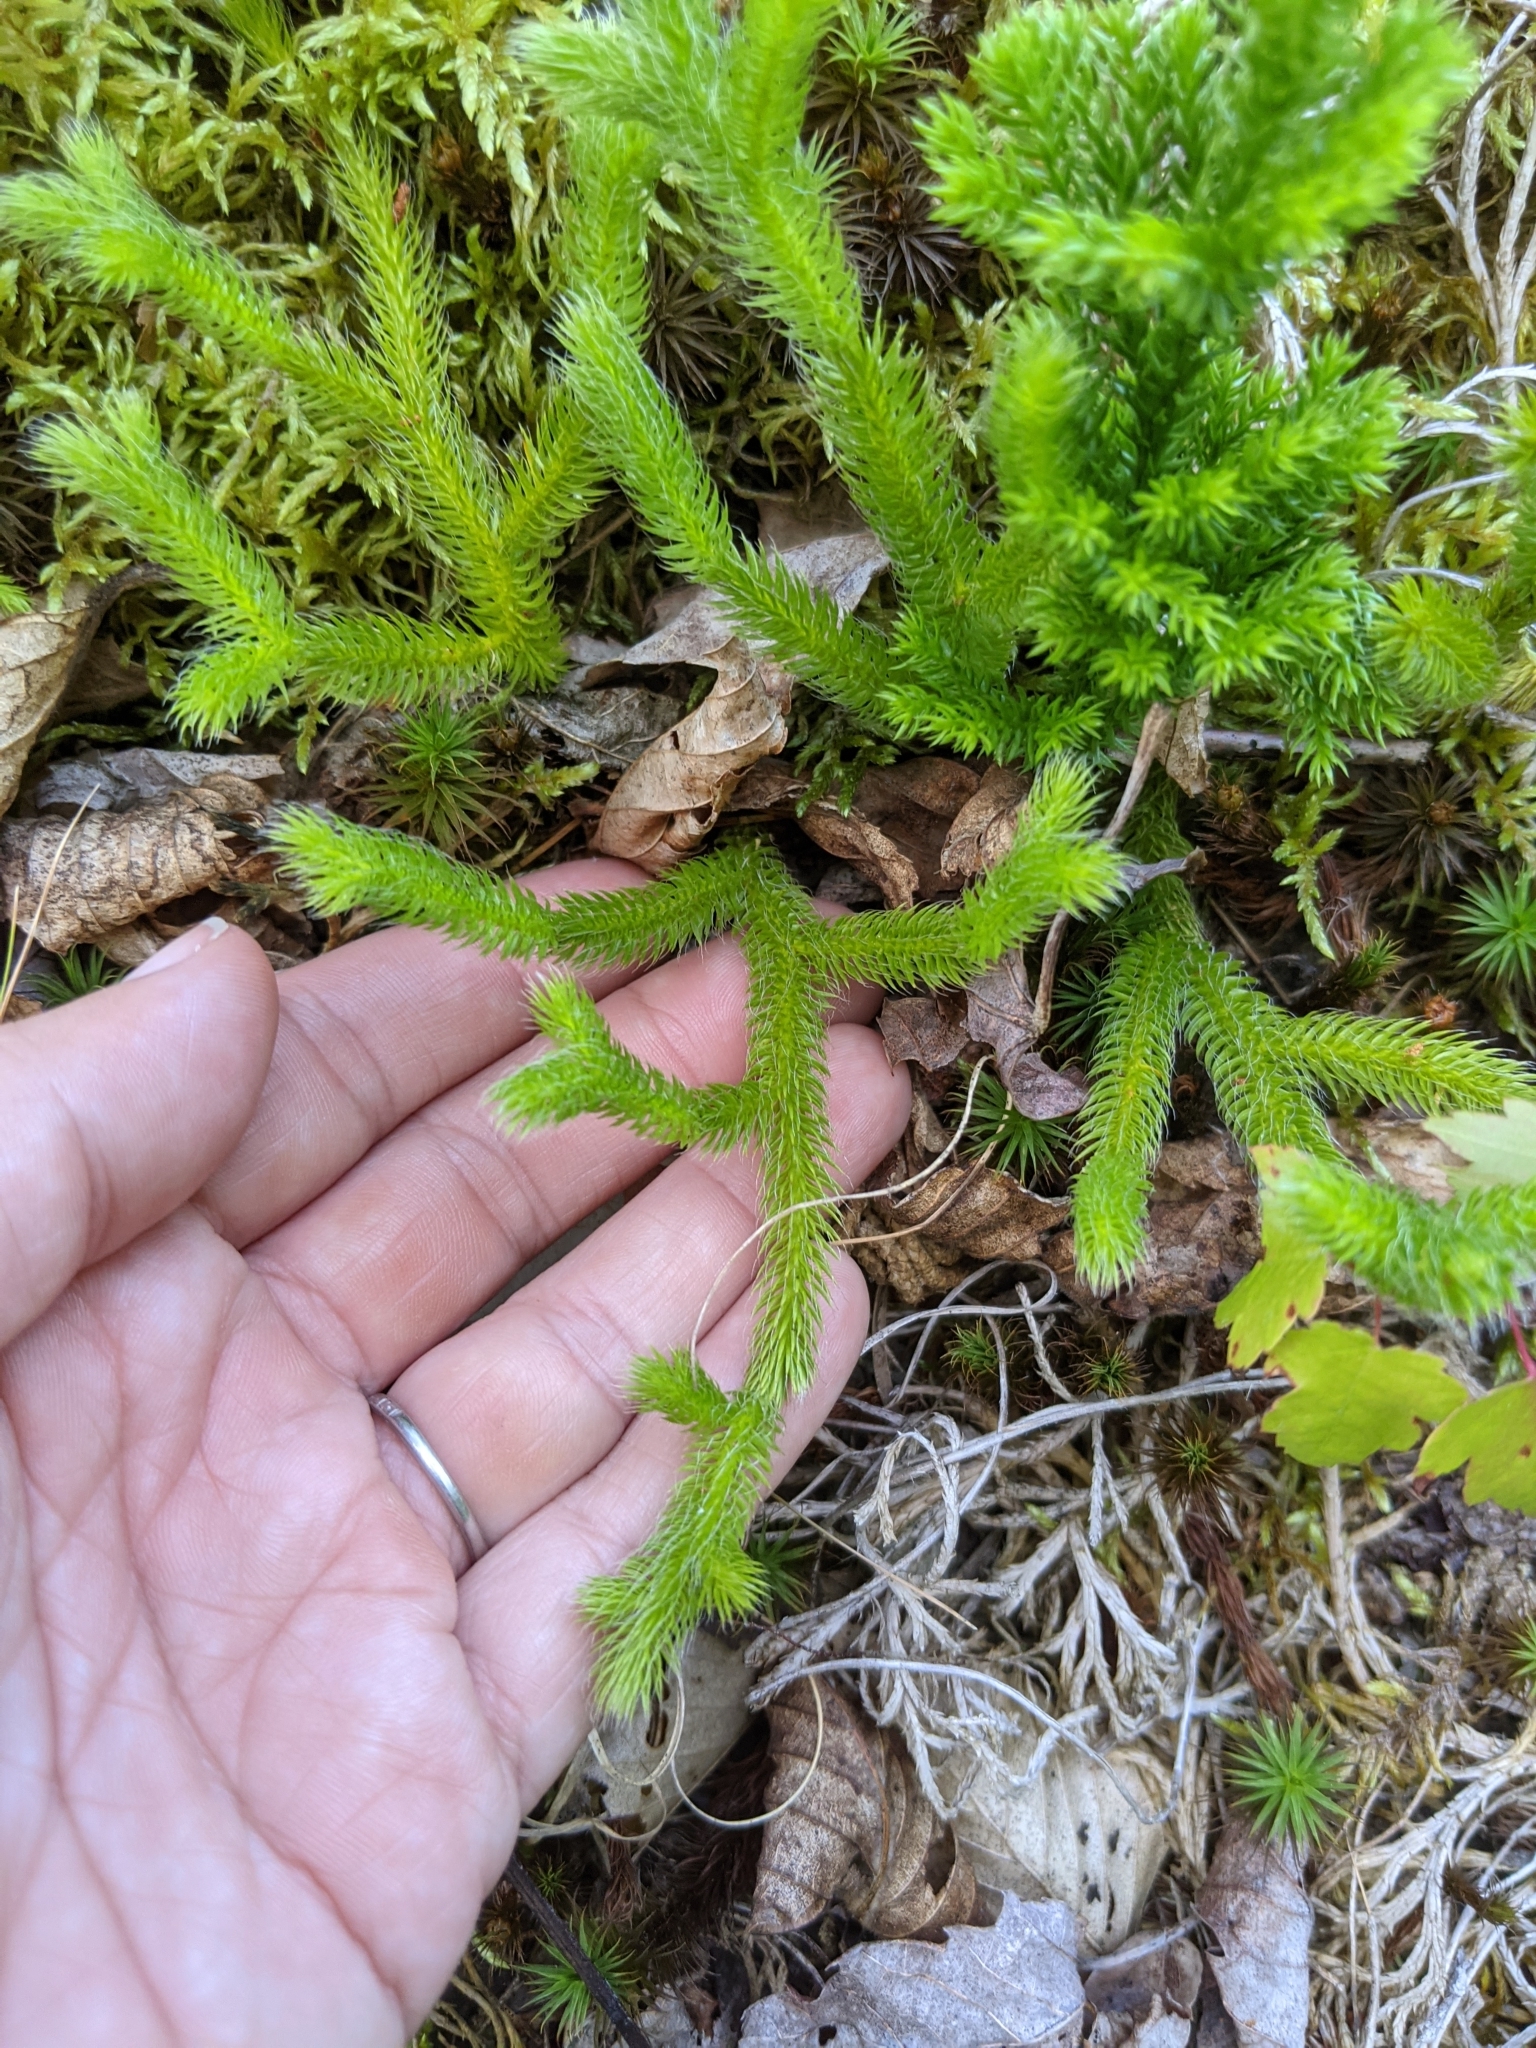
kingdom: Plantae
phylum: Tracheophyta
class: Lycopodiopsida
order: Lycopodiales
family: Lycopodiaceae
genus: Lycopodium
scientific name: Lycopodium lagopus
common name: One-cone clubmoss
